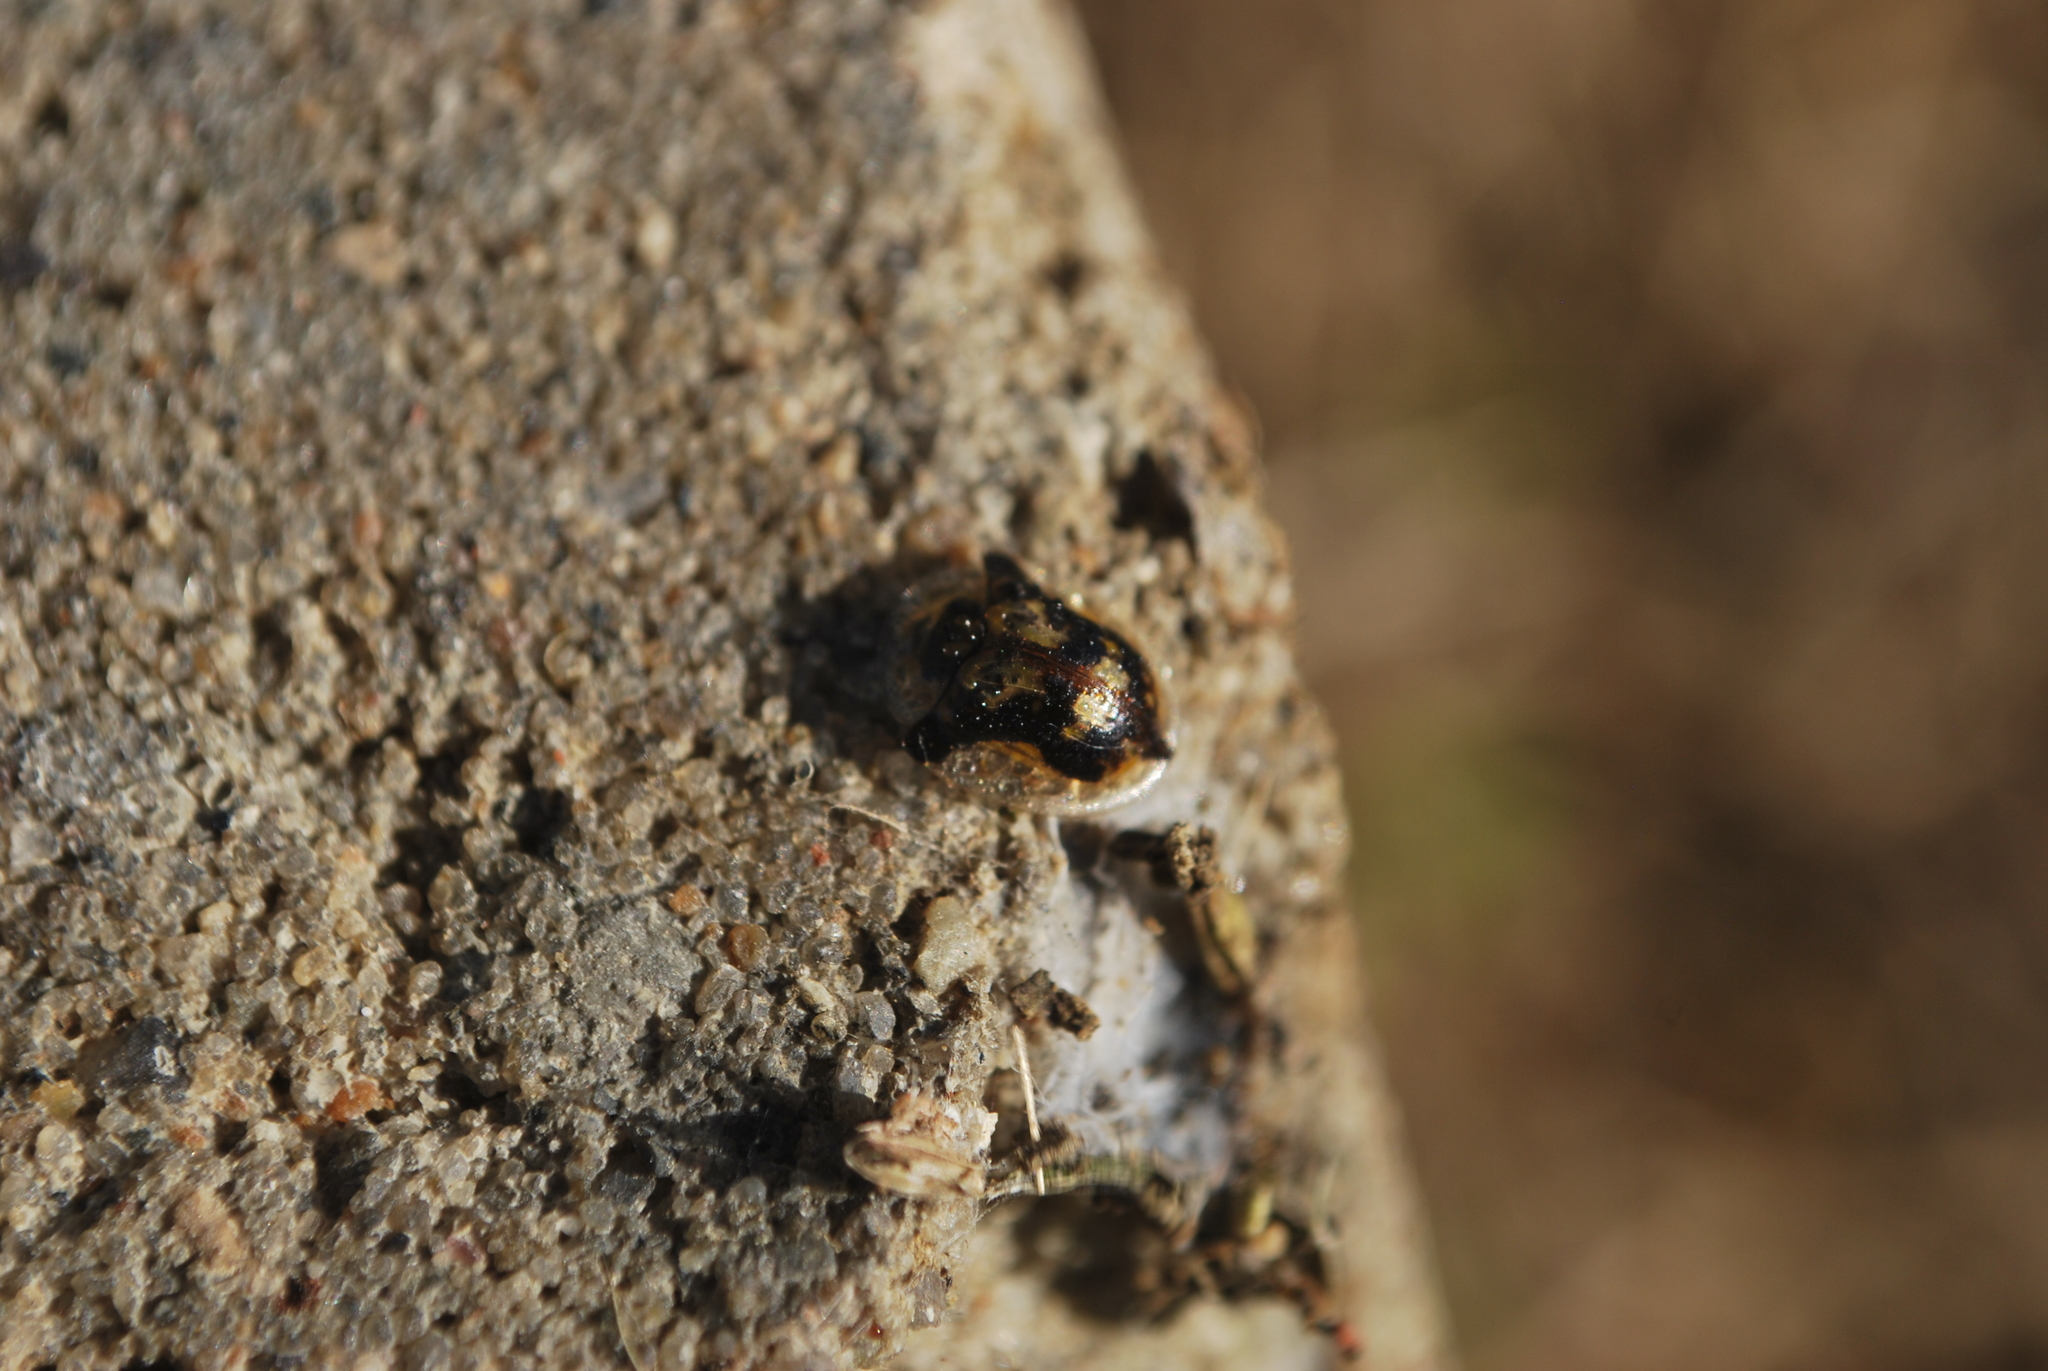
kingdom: Animalia
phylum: Arthropoda
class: Insecta
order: Coleoptera
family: Chrysomelidae
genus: Deloyala
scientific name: Deloyala guttata
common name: Mottled tortoise beetle
